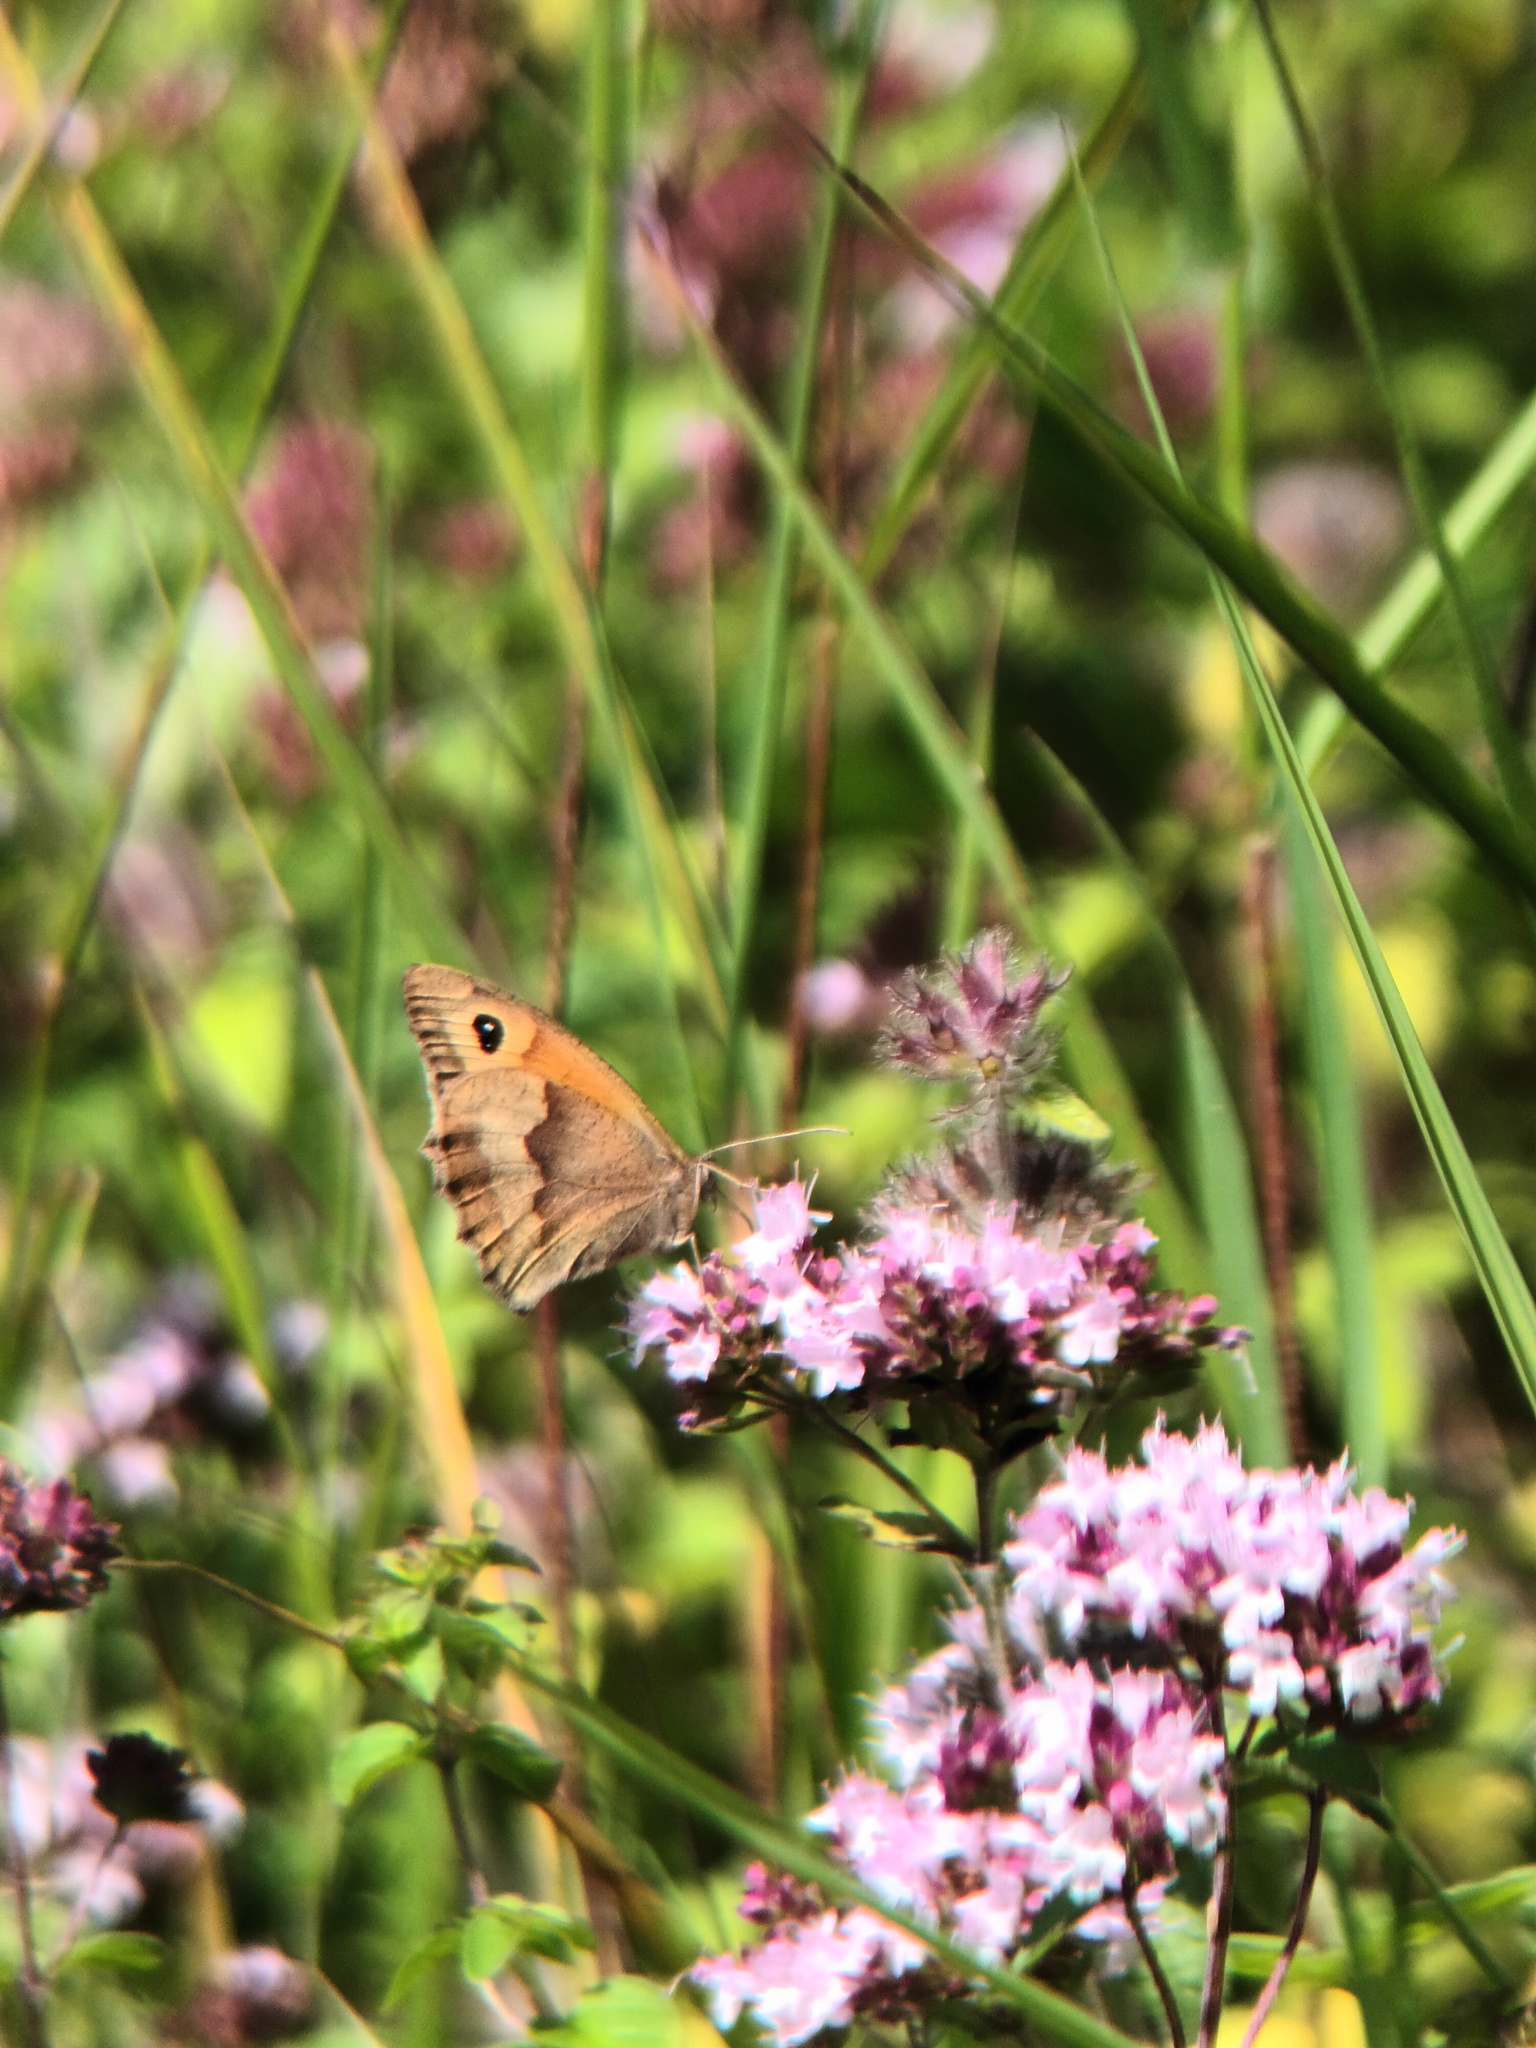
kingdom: Animalia
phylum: Arthropoda
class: Insecta
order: Lepidoptera
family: Nymphalidae
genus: Maniola
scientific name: Maniola jurtina
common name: Meadow brown
